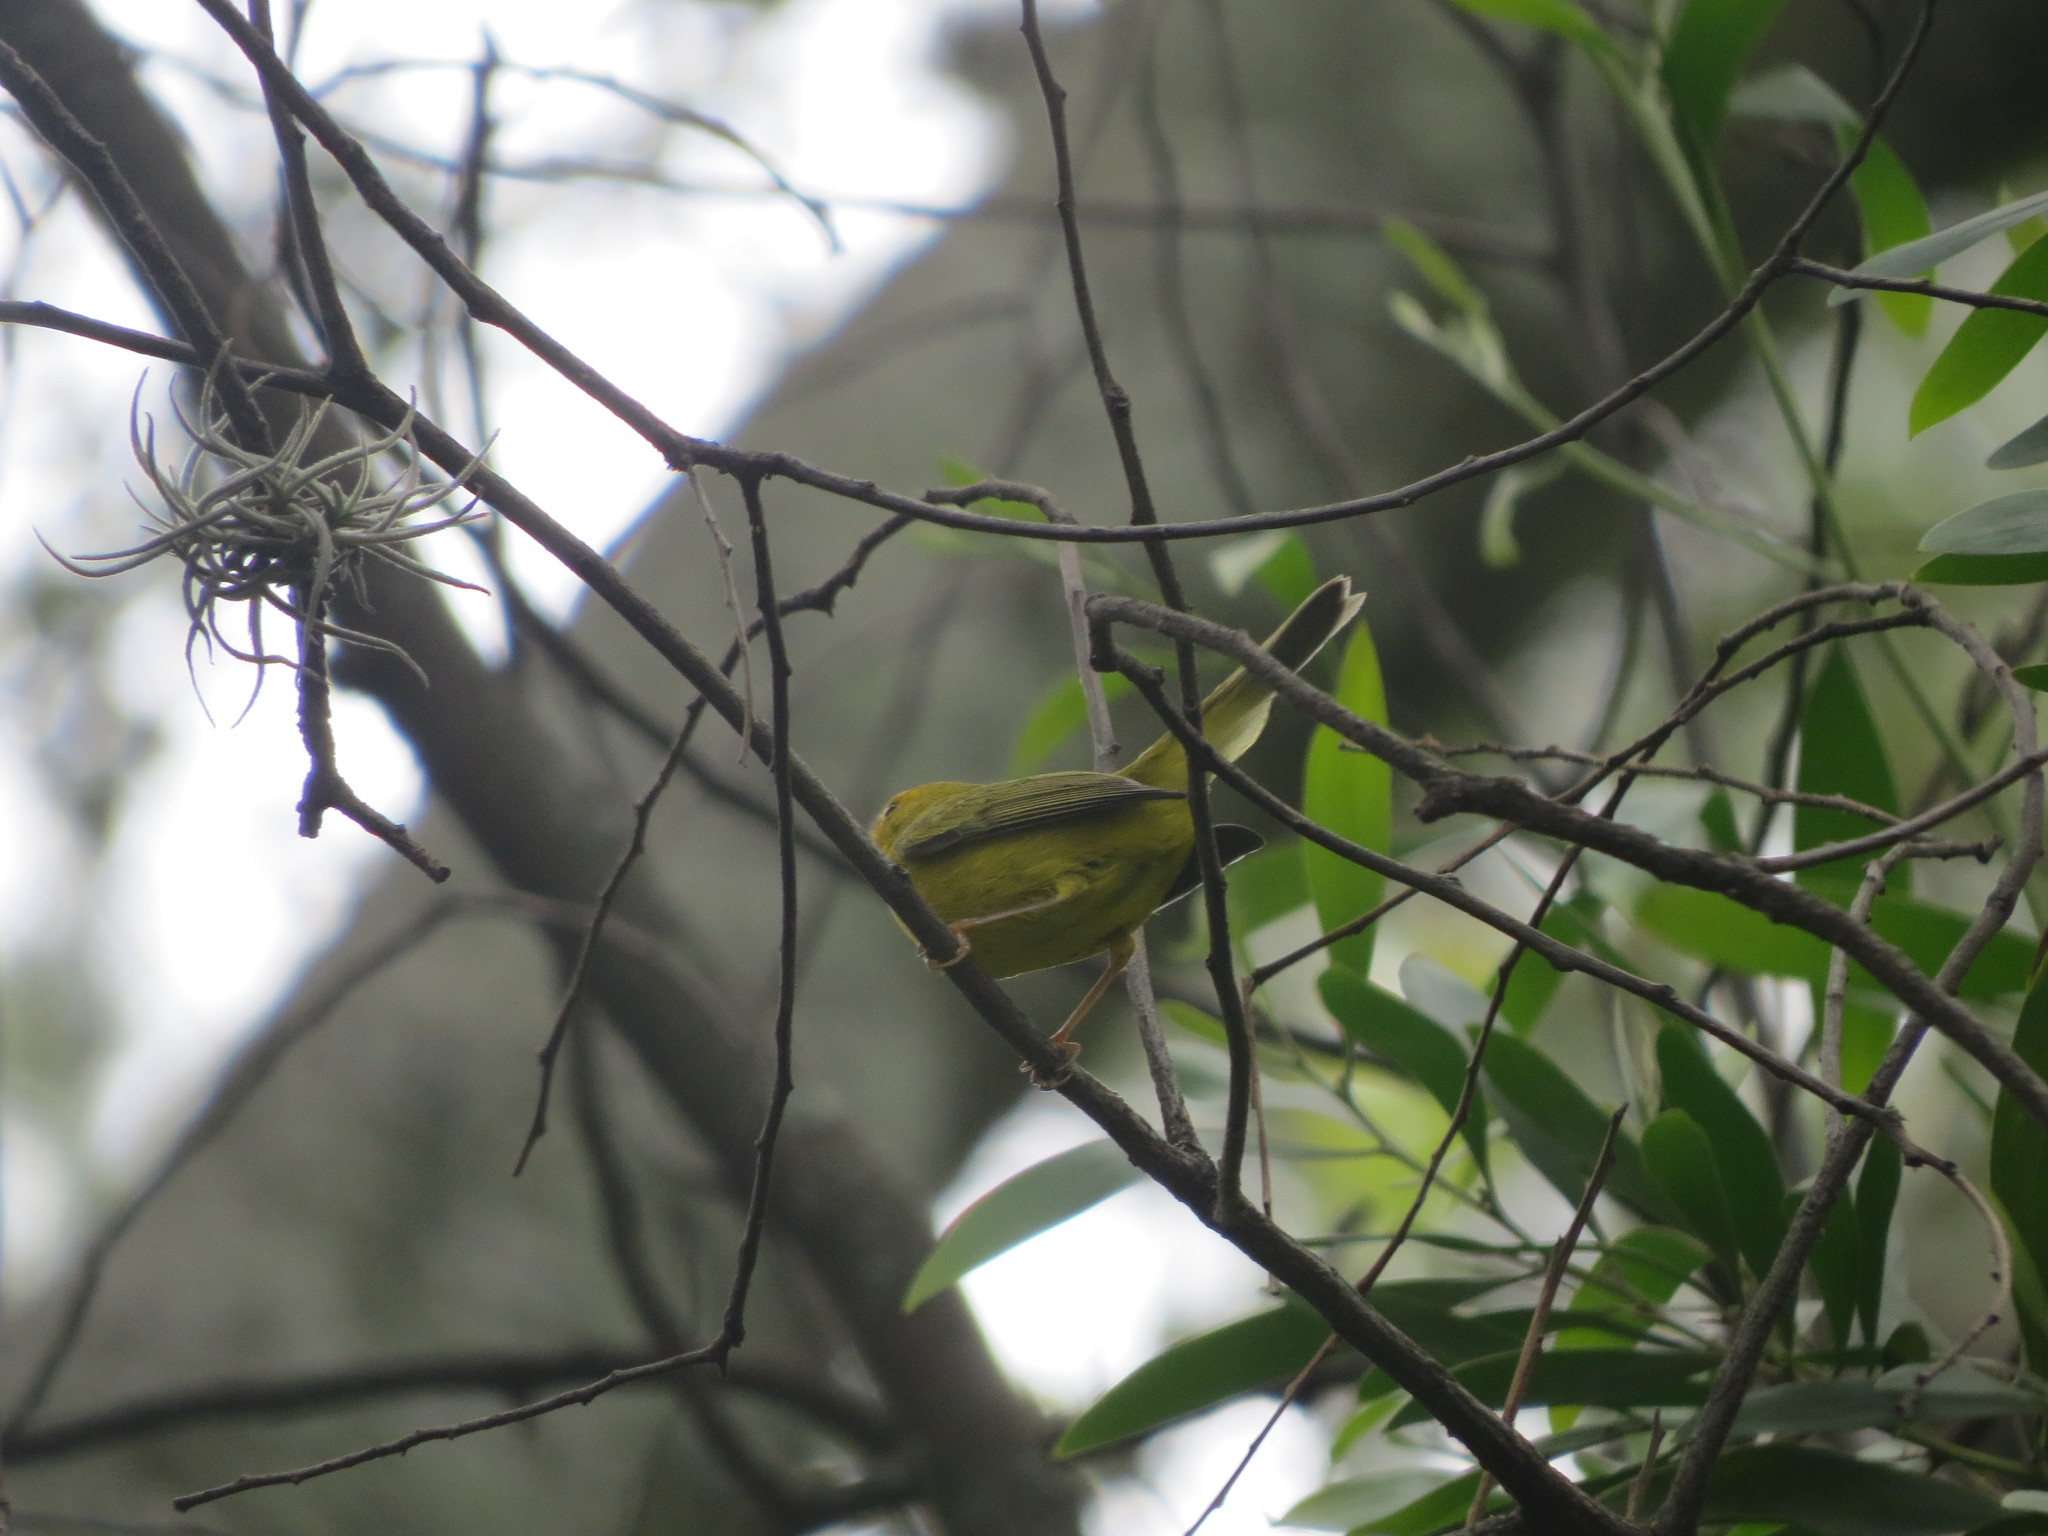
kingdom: Animalia
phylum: Chordata
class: Aves
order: Passeriformes
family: Parulidae
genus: Cardellina
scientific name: Cardellina pusilla
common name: Wilson's warbler
